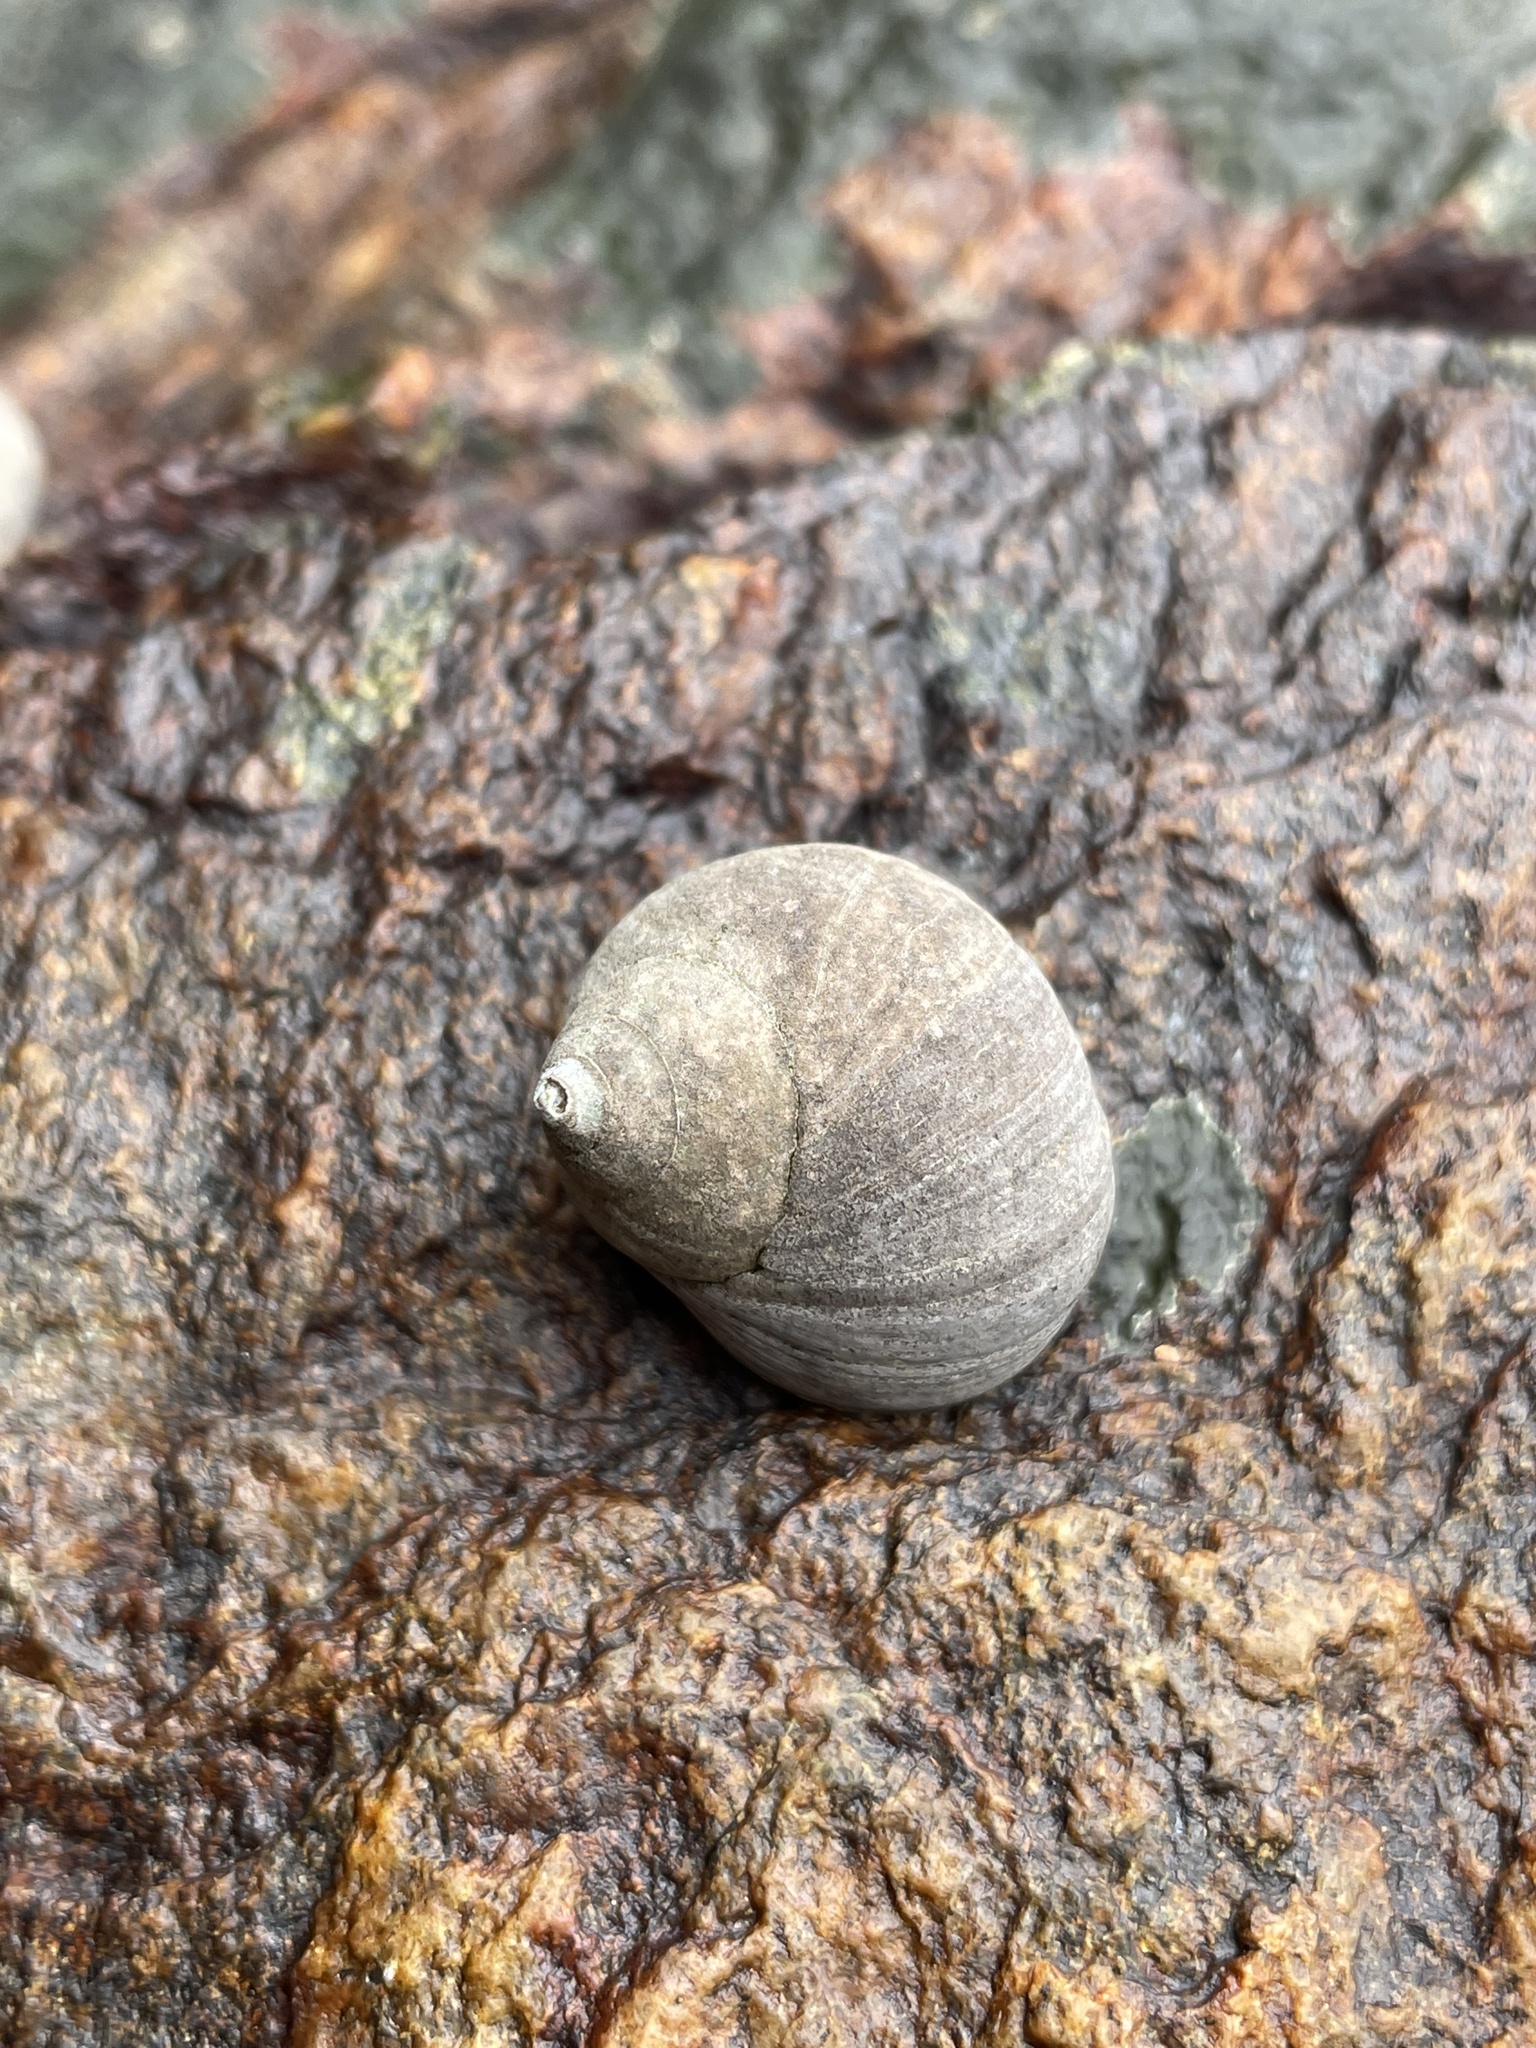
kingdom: Animalia
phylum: Mollusca
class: Gastropoda
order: Littorinimorpha
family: Littorinidae
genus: Littorina
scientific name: Littorina littorea
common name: Common periwinkle
